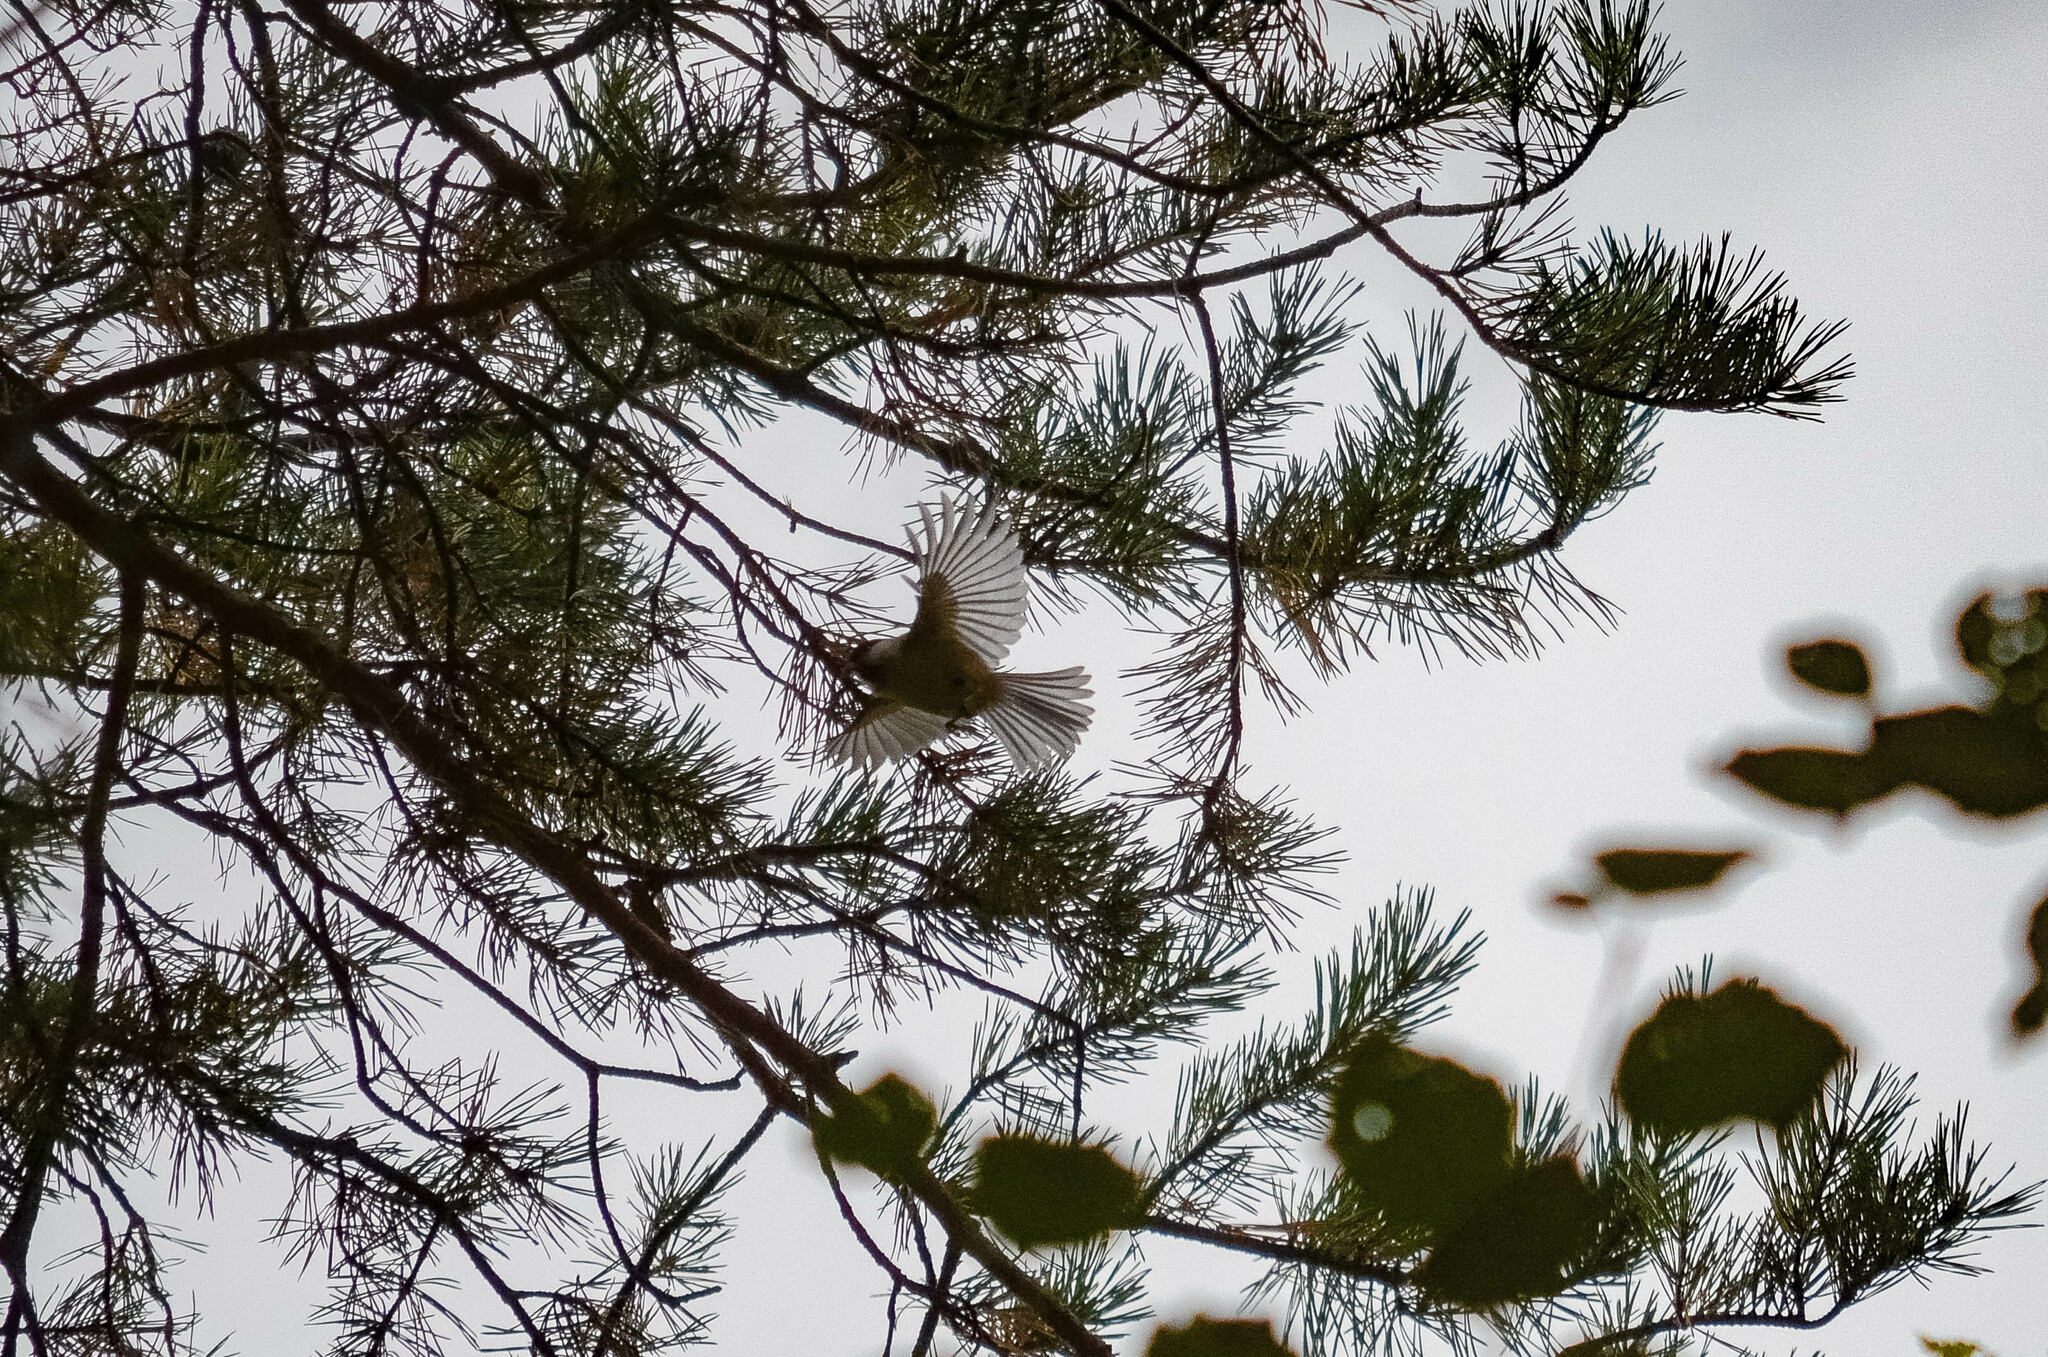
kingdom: Animalia
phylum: Chordata
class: Aves
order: Passeriformes
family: Paridae
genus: Poecile
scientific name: Poecile montanus
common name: Willow tit
